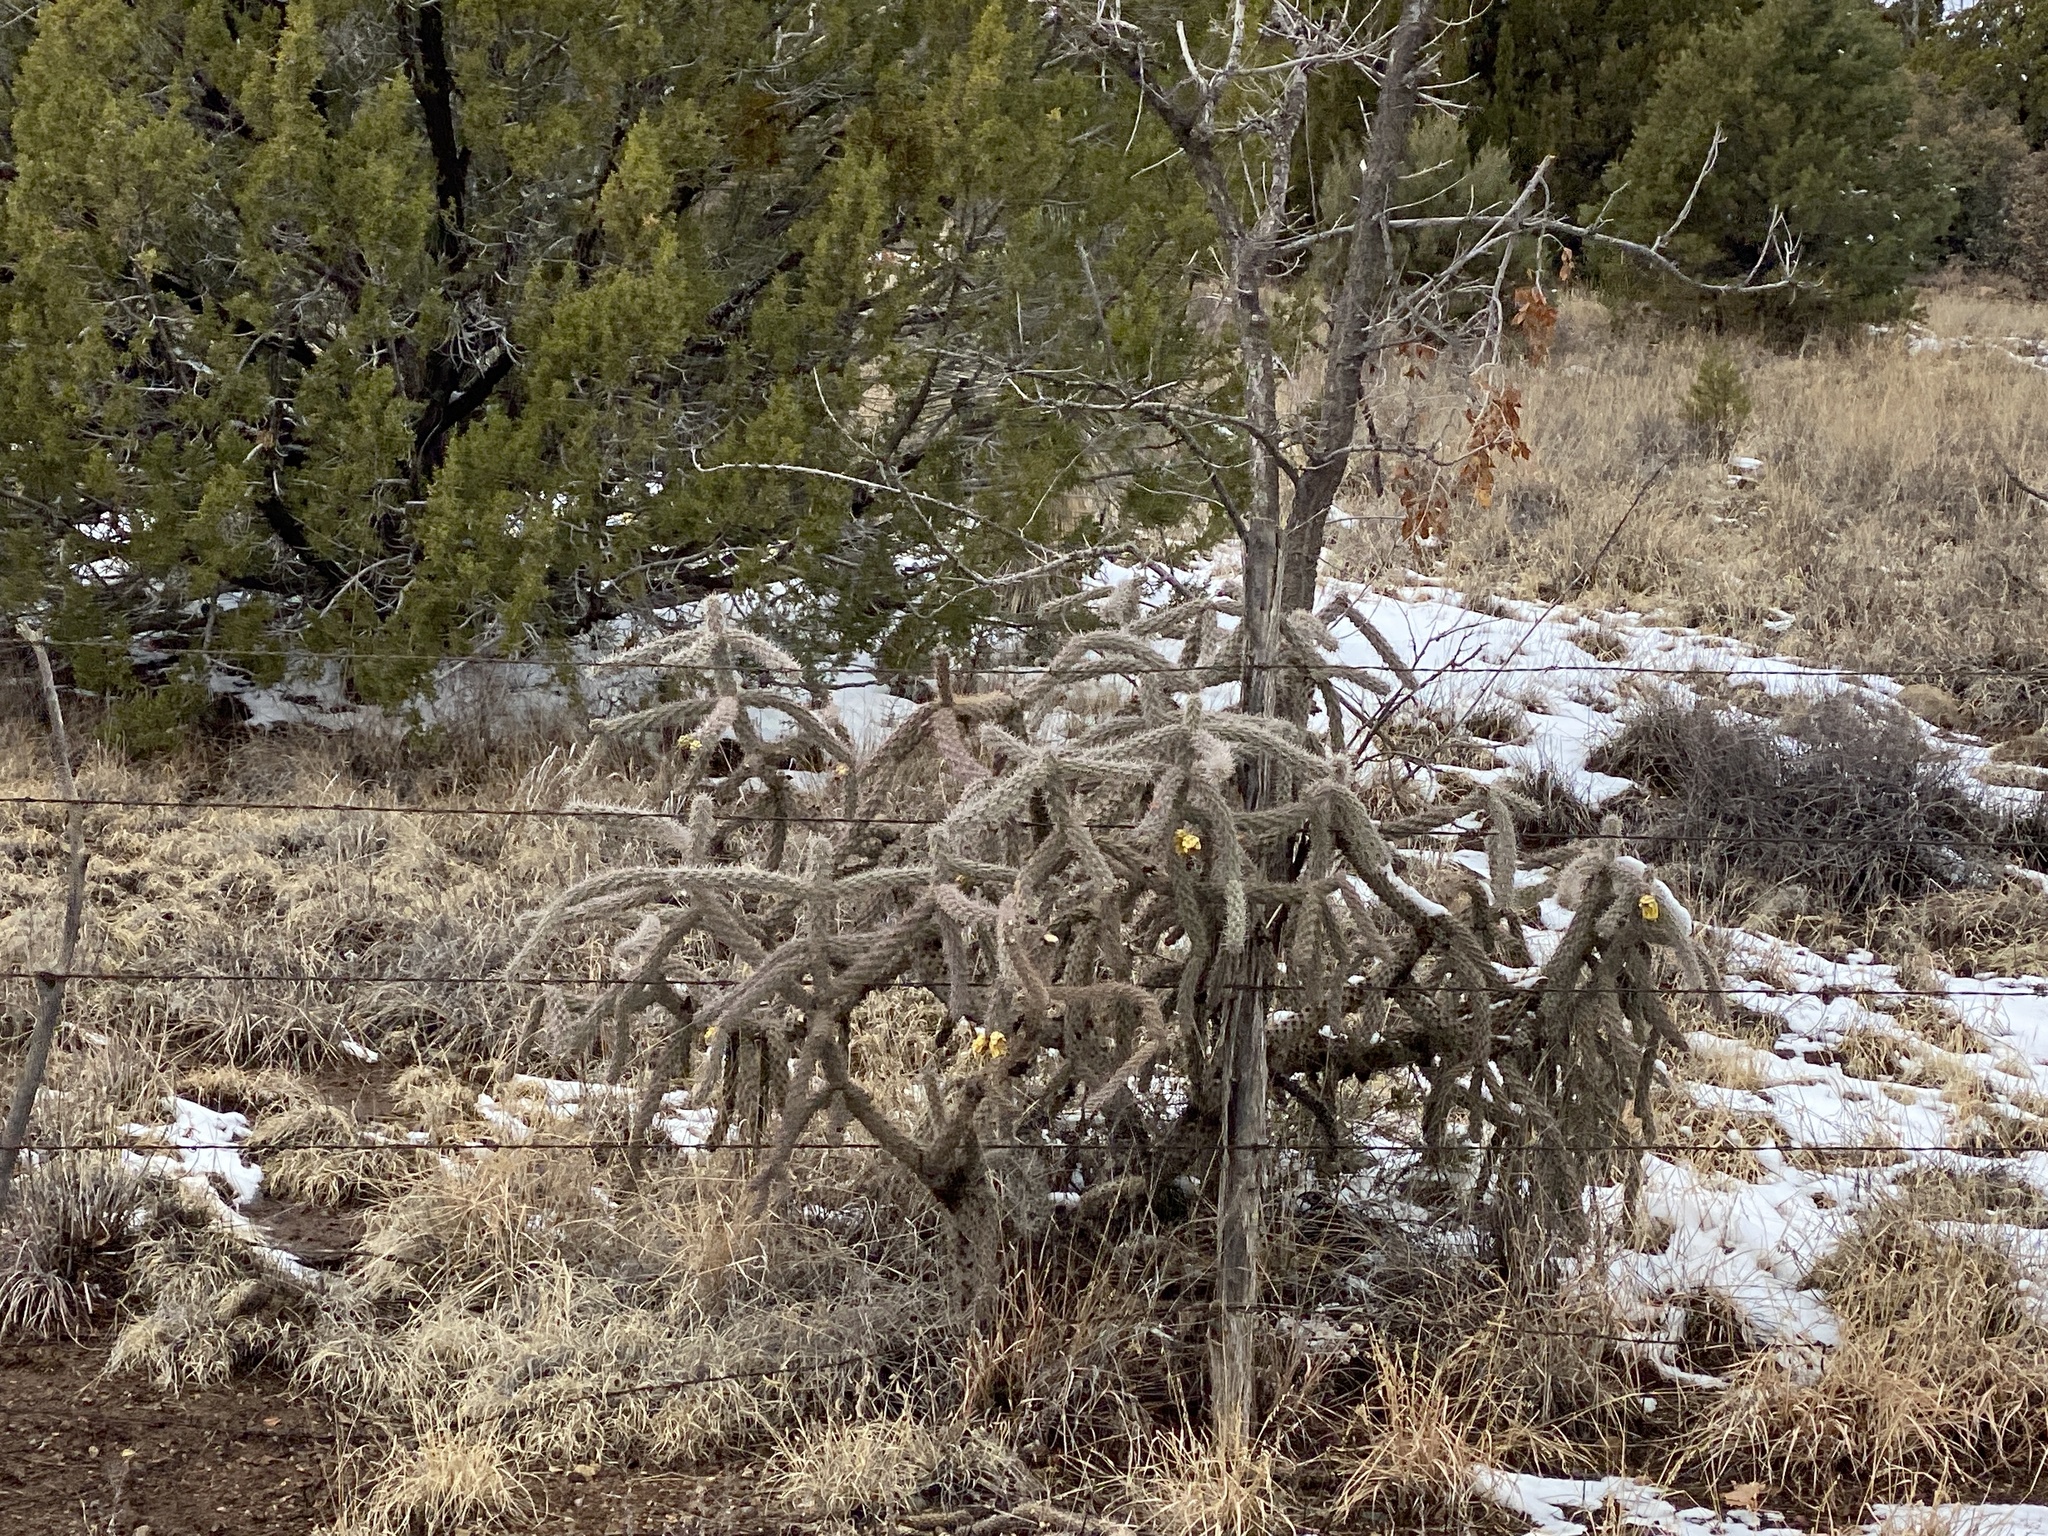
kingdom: Plantae
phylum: Tracheophyta
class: Magnoliopsida
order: Caryophyllales
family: Cactaceae
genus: Cylindropuntia
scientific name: Cylindropuntia imbricata
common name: Candelabrum cactus
